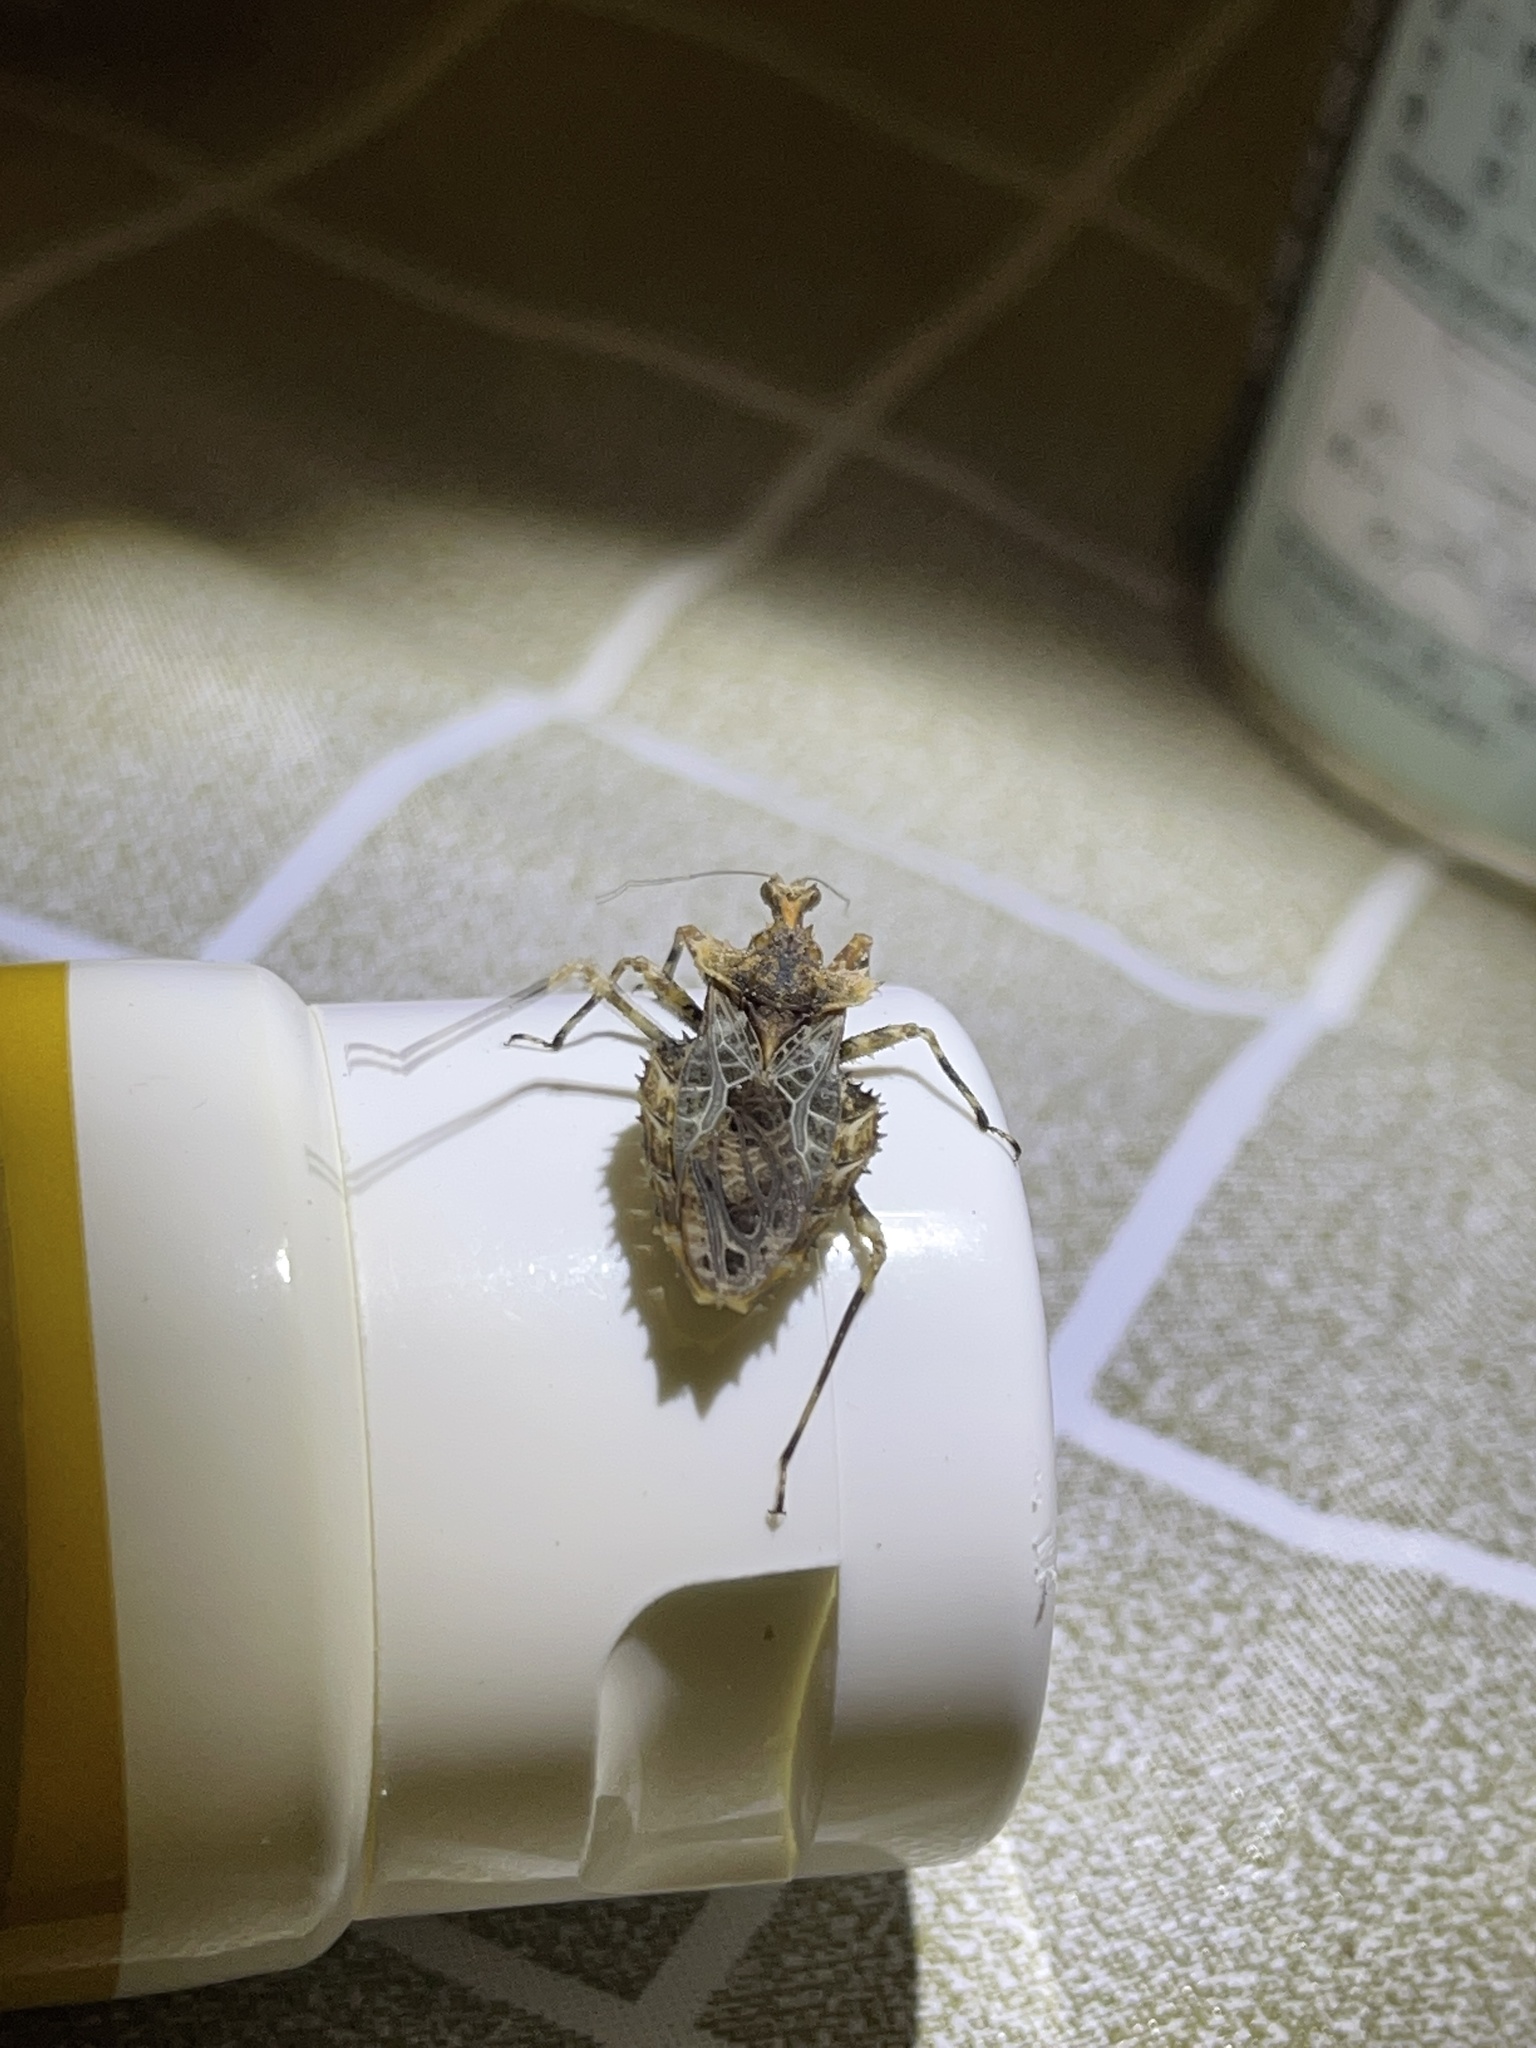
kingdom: Animalia
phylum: Arthropoda
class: Insecta
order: Hemiptera
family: Reduviidae
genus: Neocentrocnemis
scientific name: Neocentrocnemis stali
